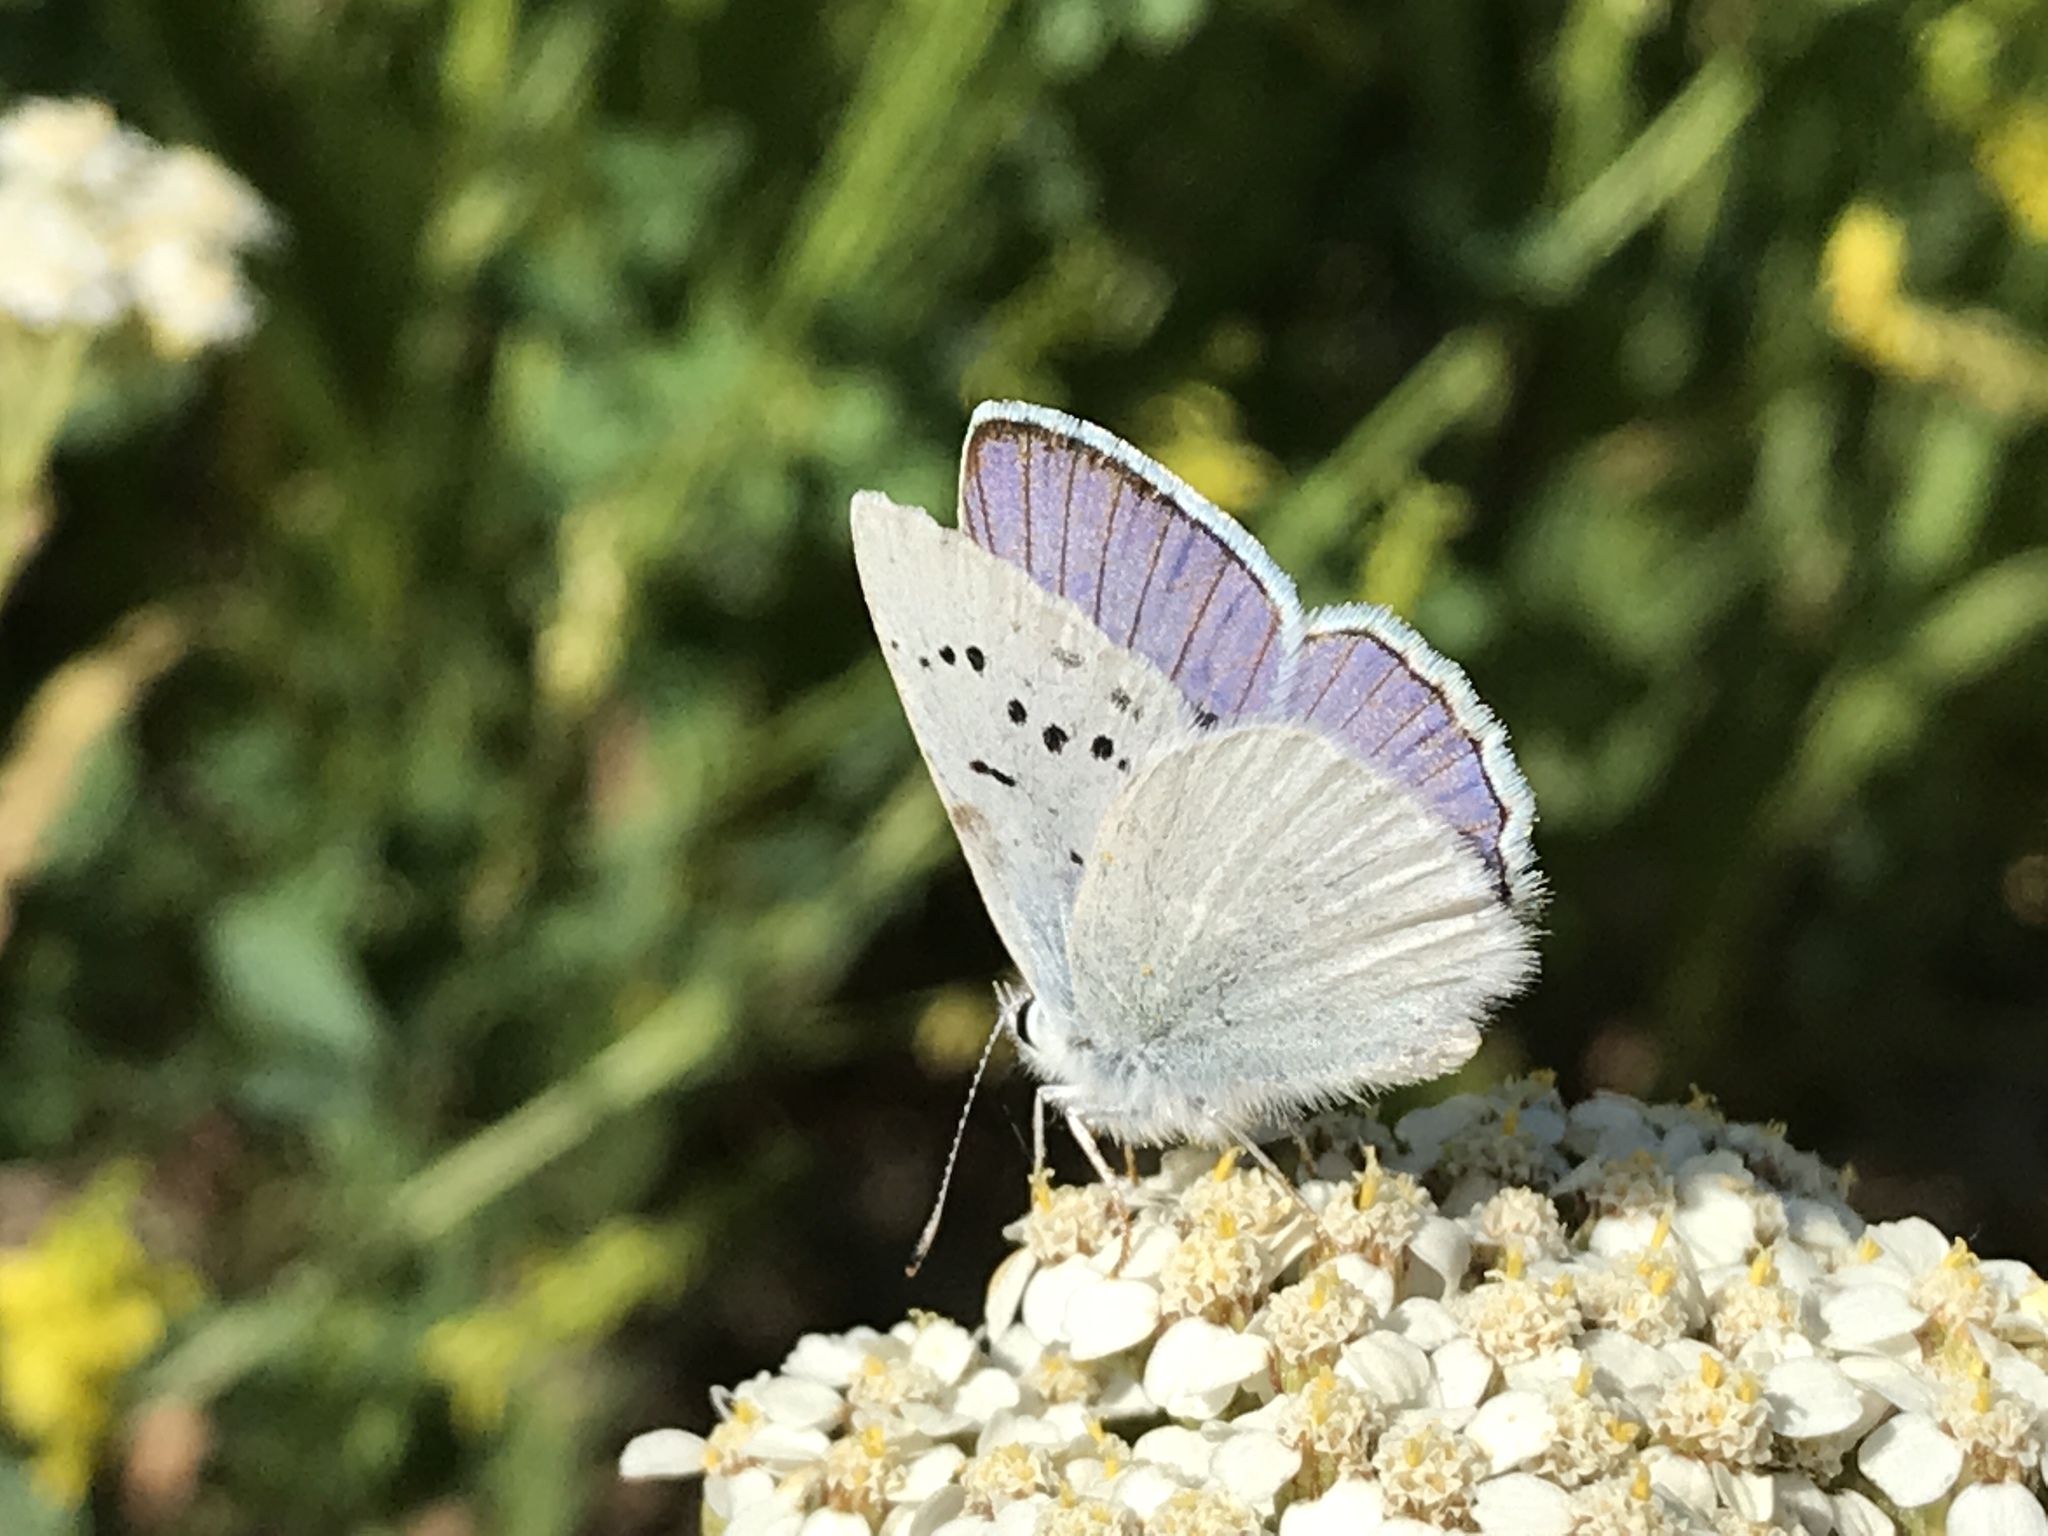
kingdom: Animalia
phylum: Arthropoda
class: Insecta
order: Lepidoptera
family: Lycaenidae
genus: Tharsalea
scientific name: Tharsalea heteronea
